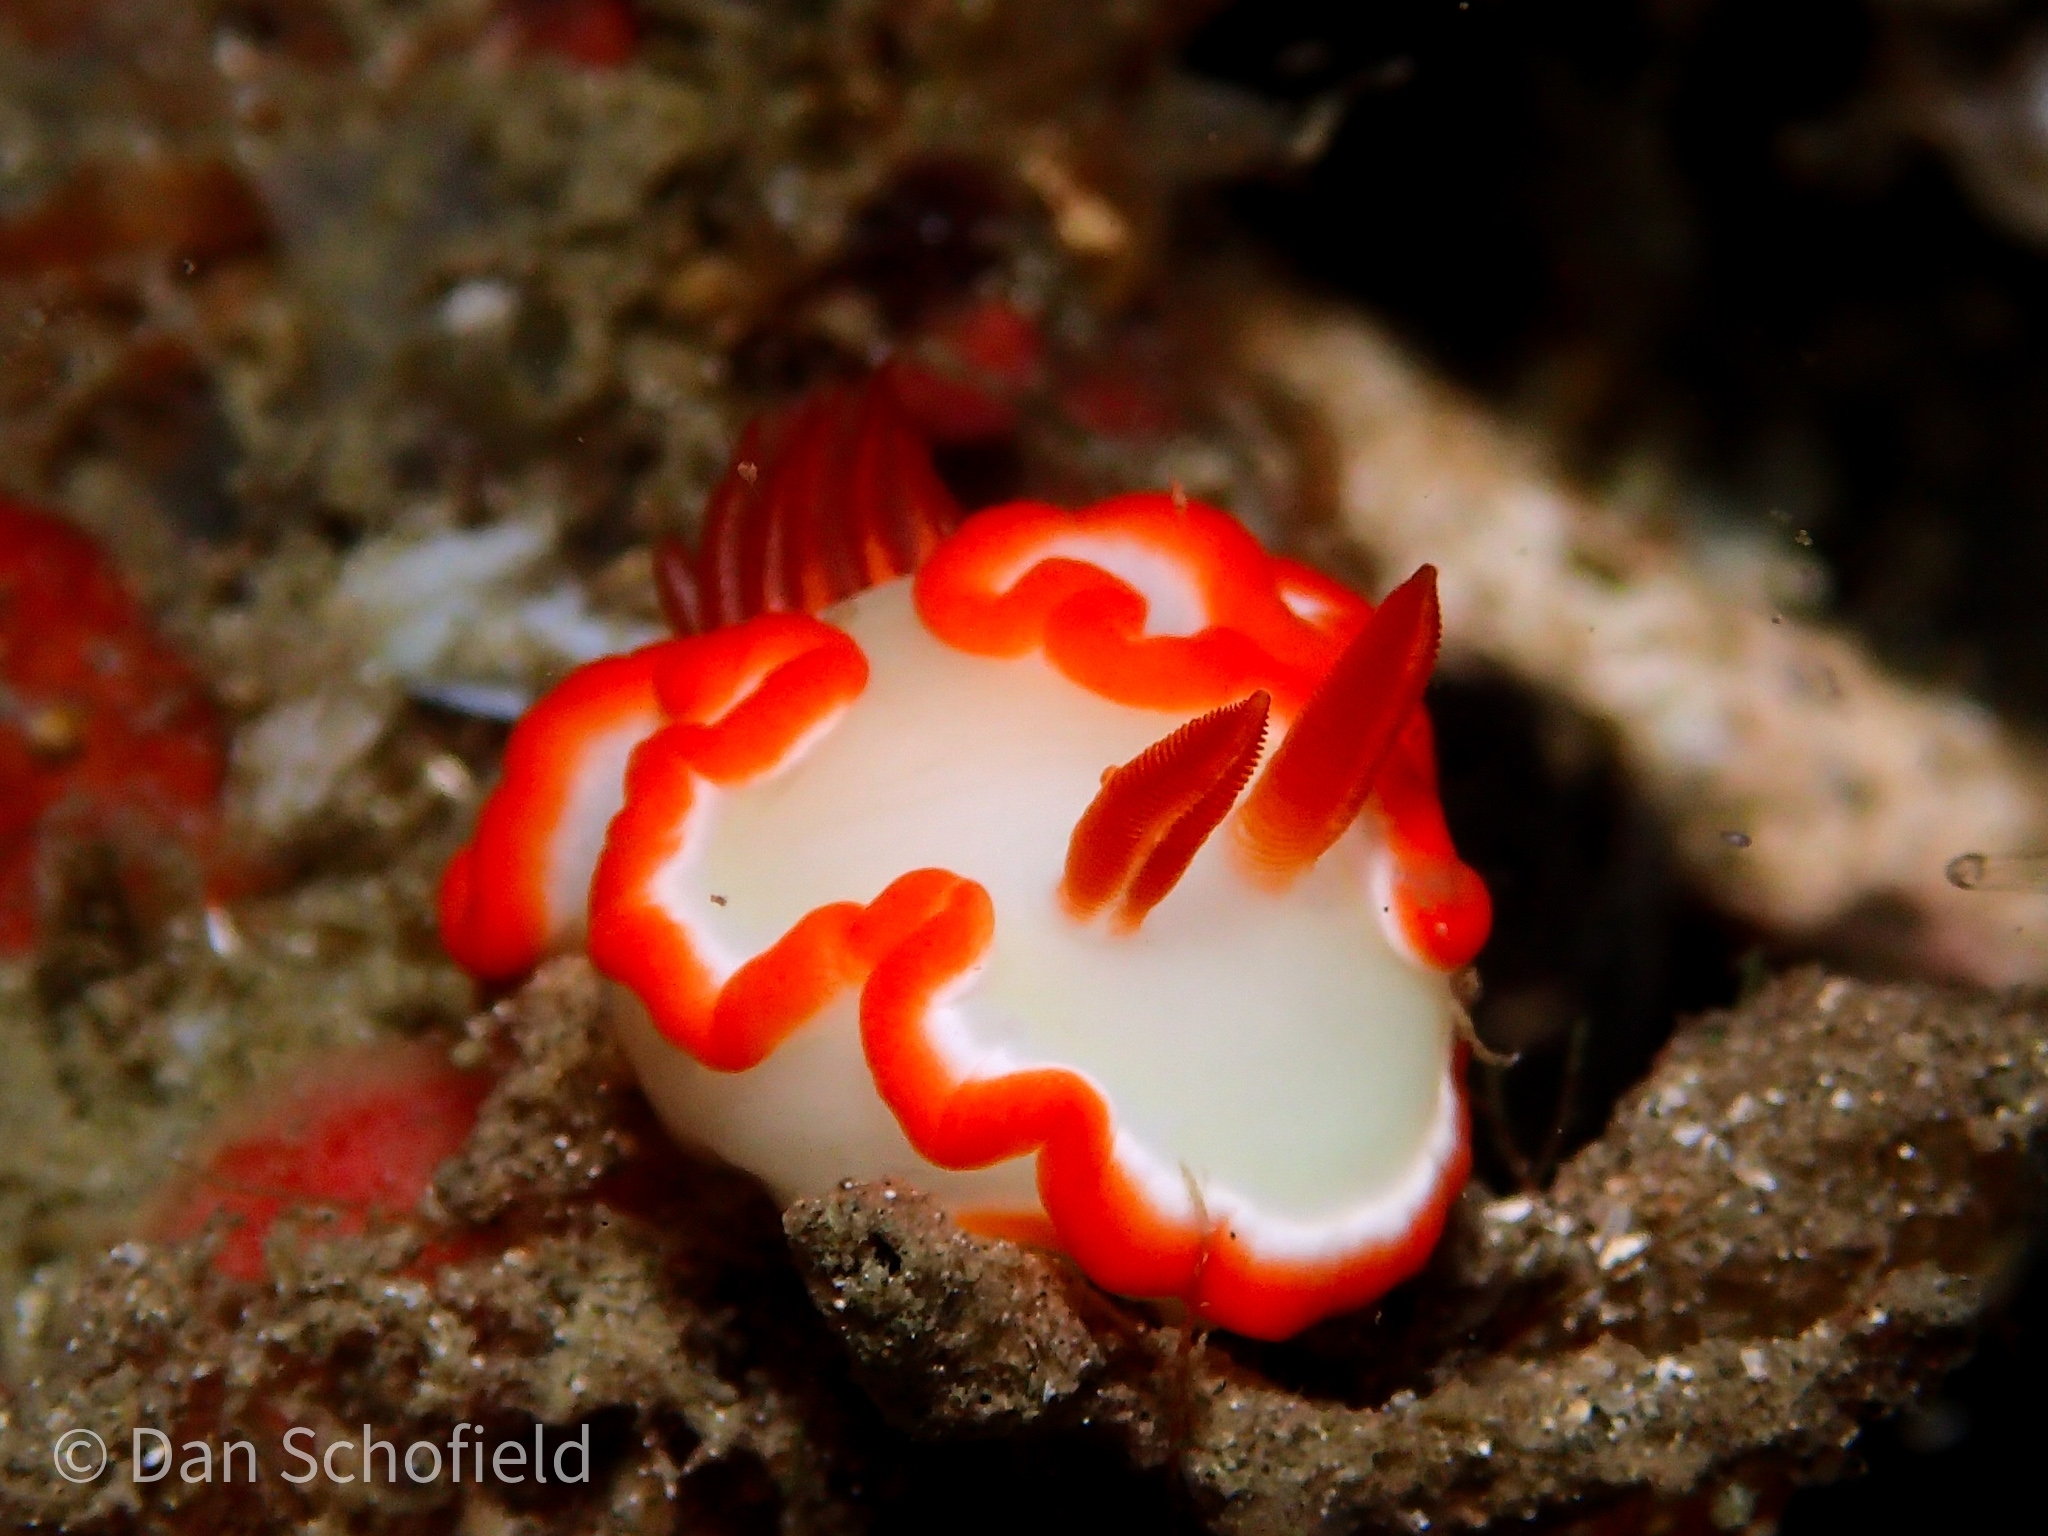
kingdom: Animalia
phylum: Mollusca
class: Gastropoda
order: Nudibranchia
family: Chromodorididae
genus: Ardeadoris
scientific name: Ardeadoris averni
